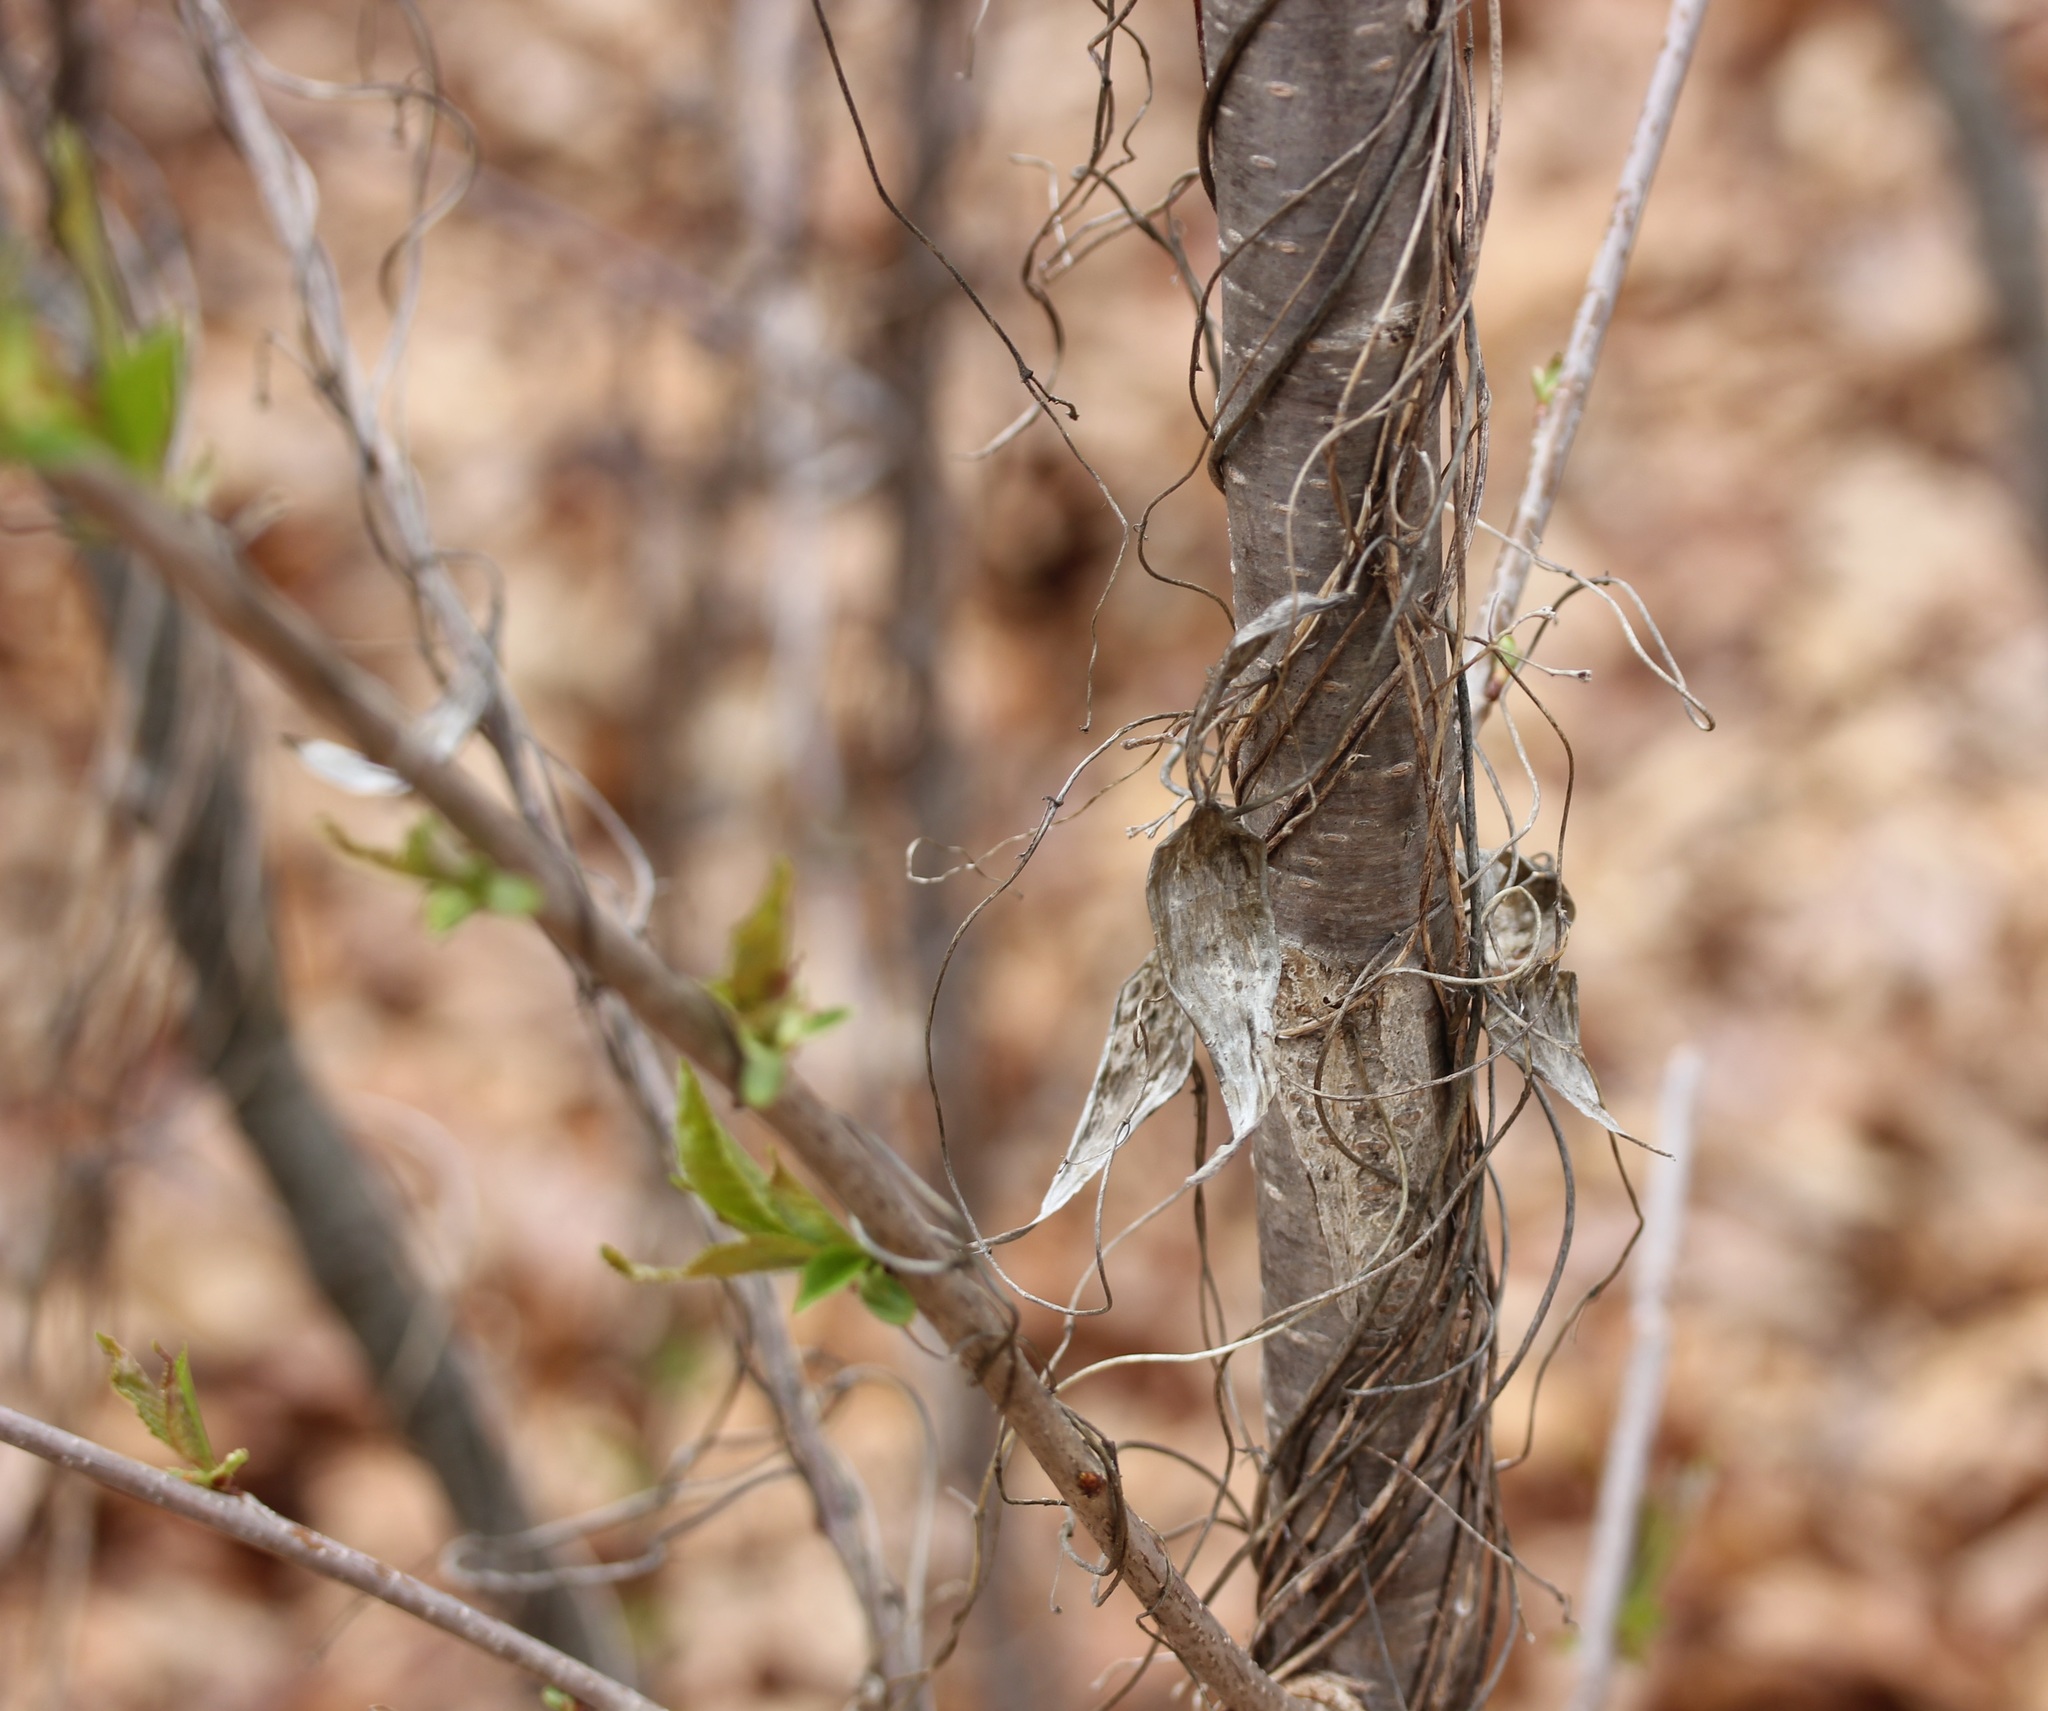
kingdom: Plantae
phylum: Tracheophyta
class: Magnoliopsida
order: Gentianales
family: Apocynaceae
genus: Vincetoxicum
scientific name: Vincetoxicum
